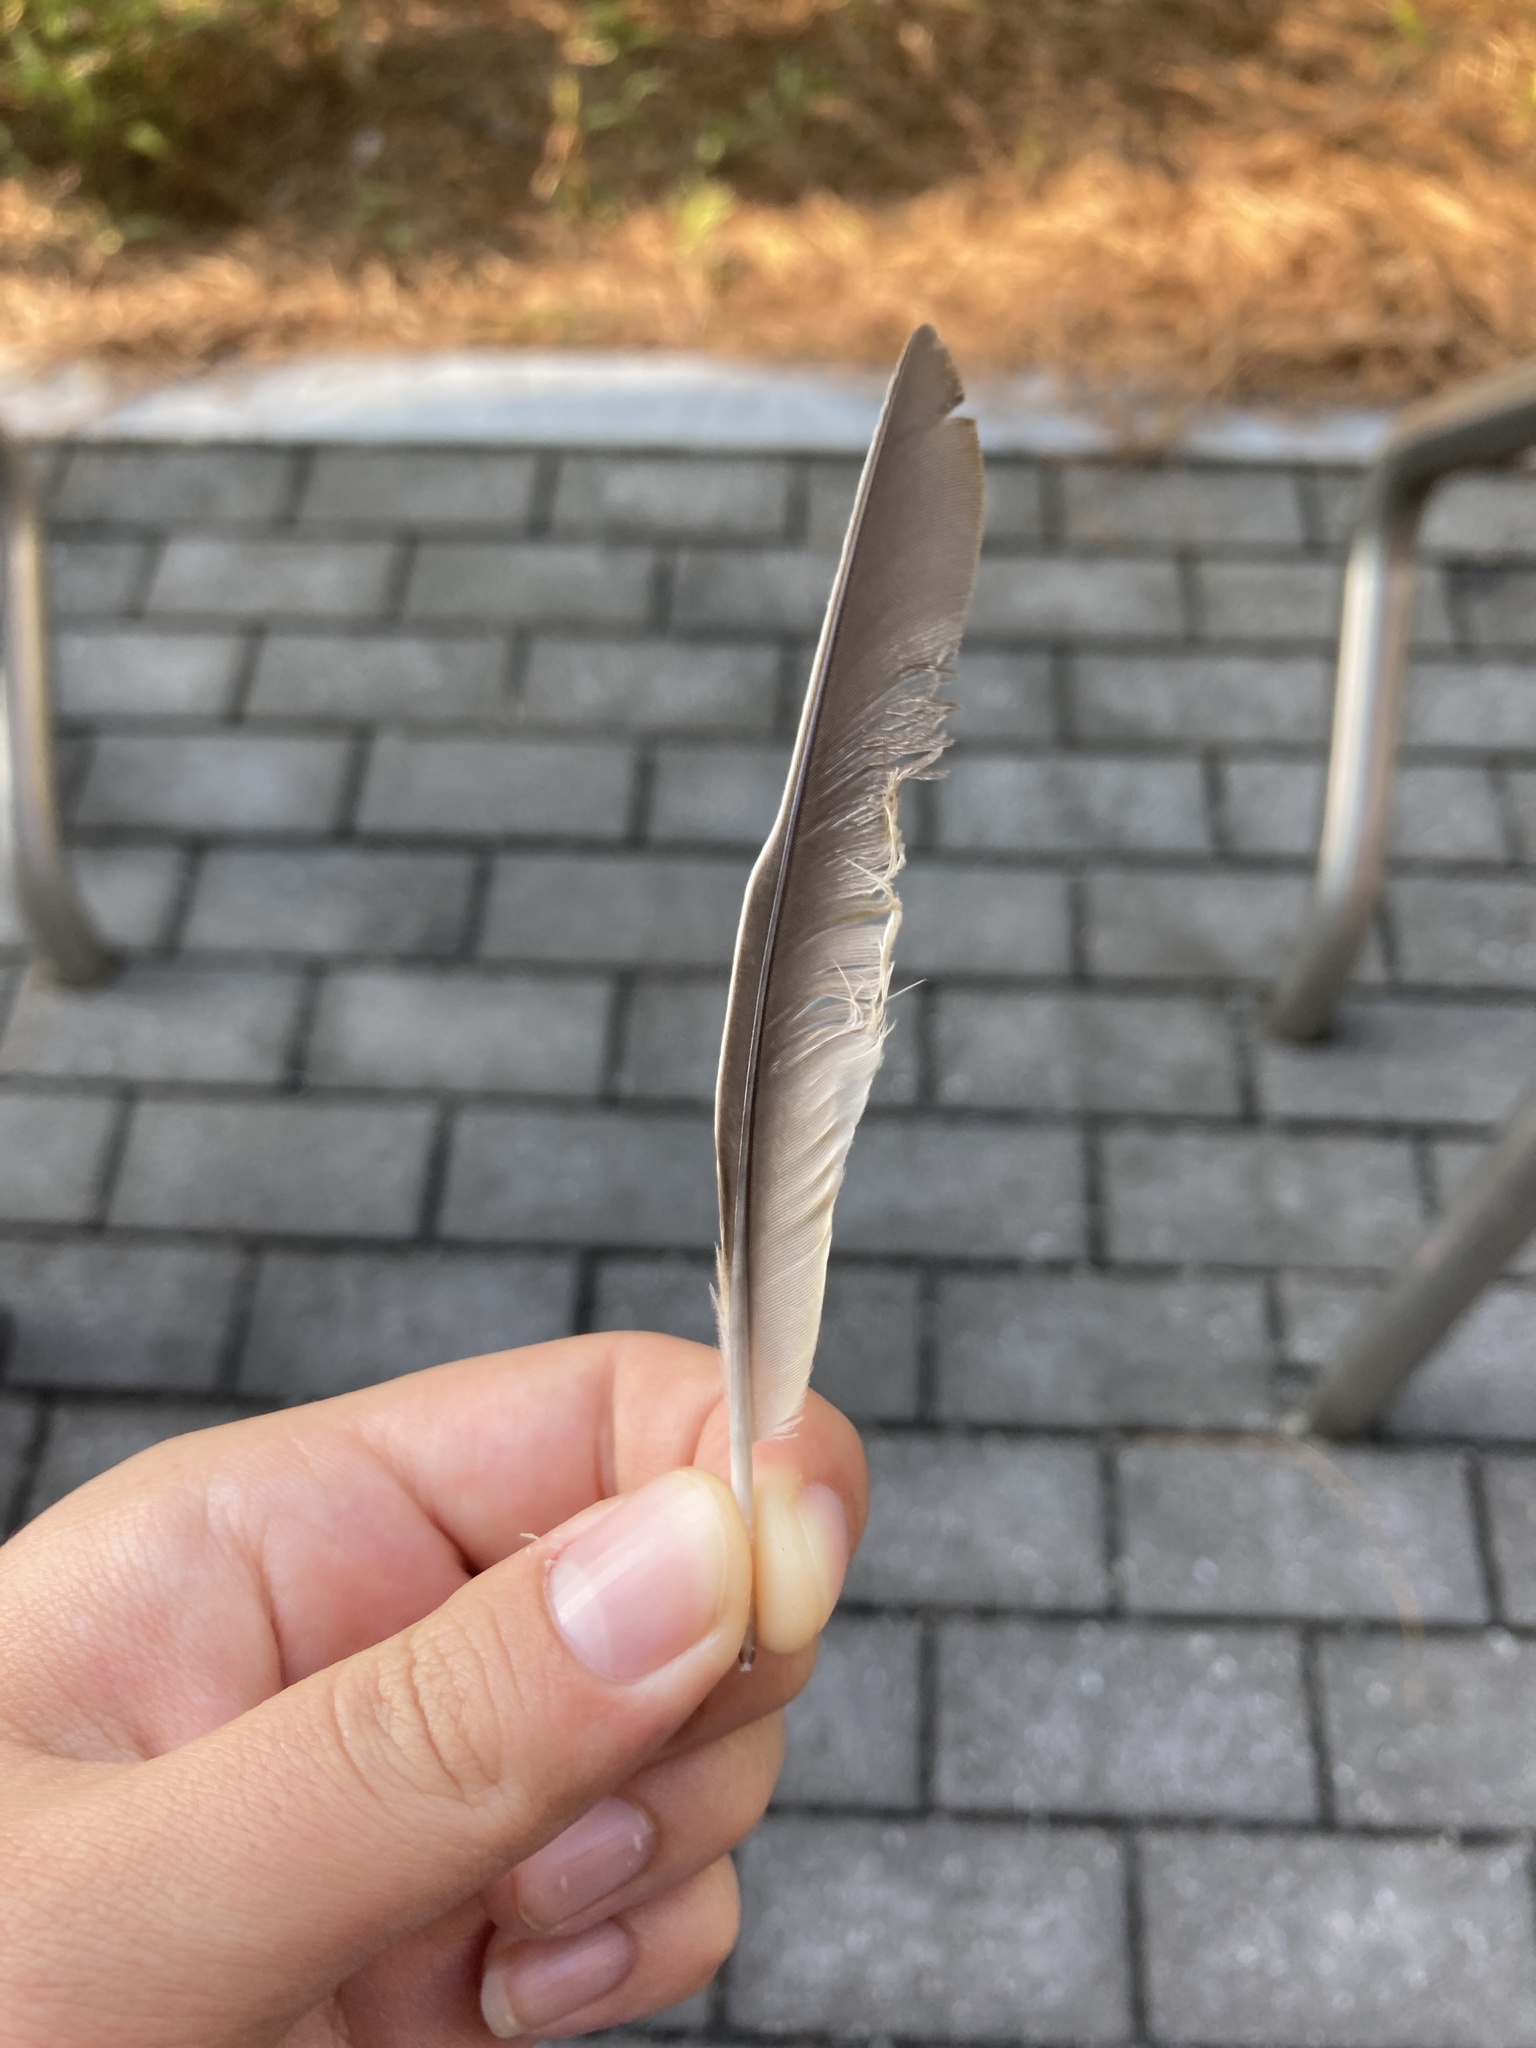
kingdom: Animalia
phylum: Chordata
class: Aves
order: Passeriformes
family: Turdidae
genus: Turdus
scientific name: Turdus migratorius
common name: American robin
